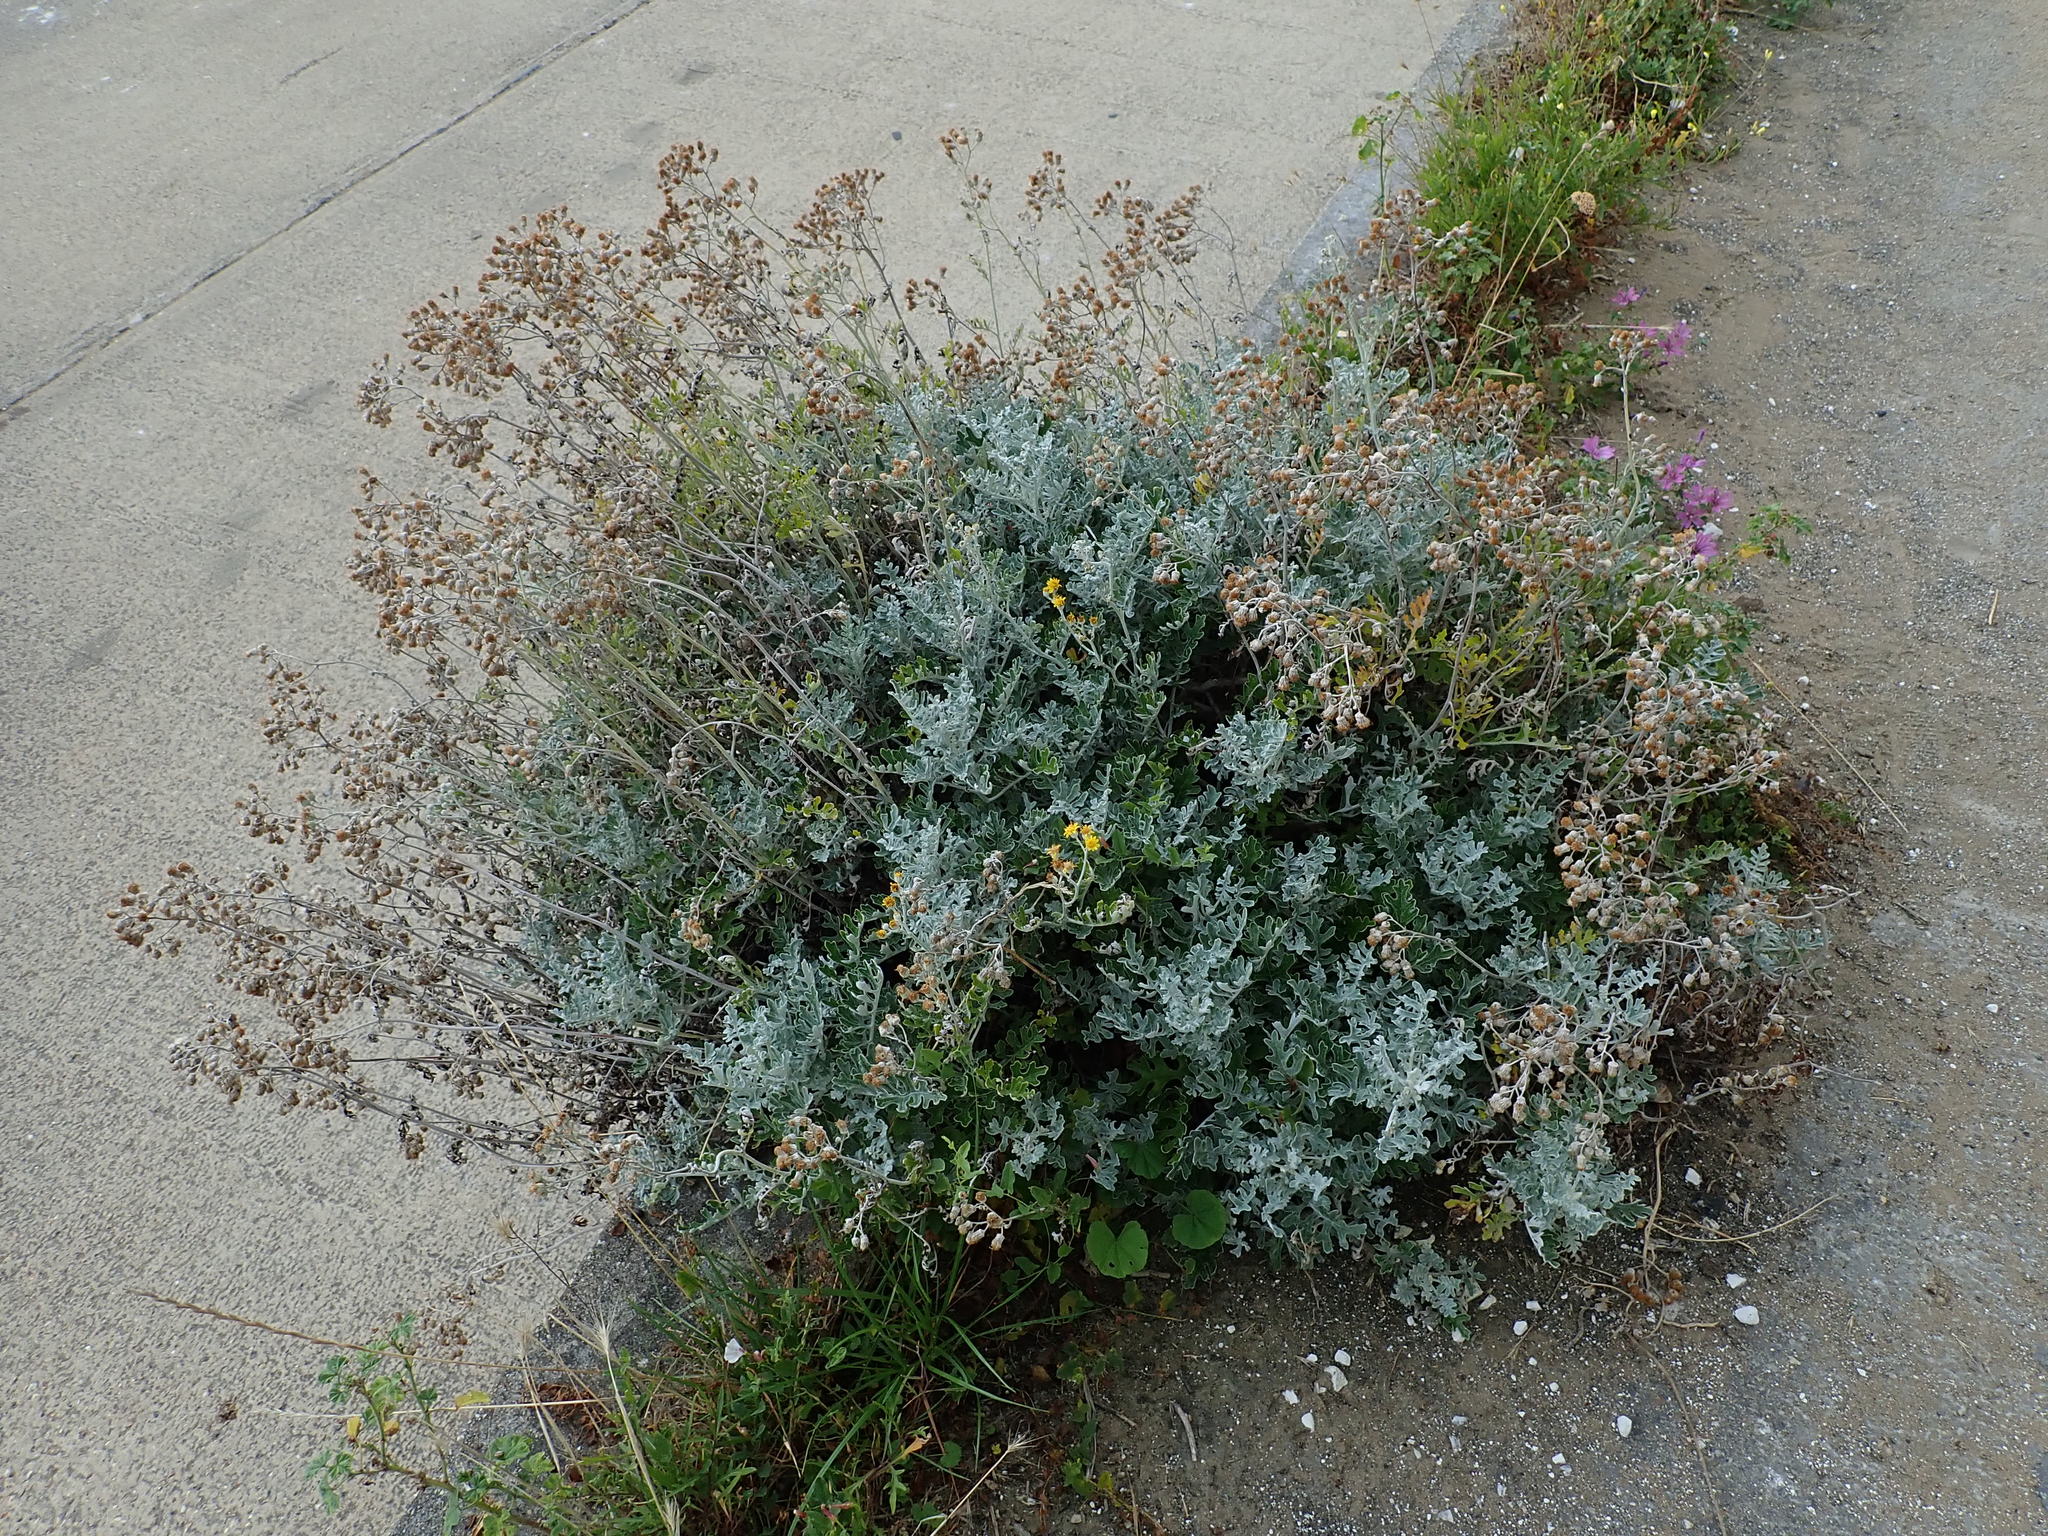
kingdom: Plantae
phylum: Tracheophyta
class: Magnoliopsida
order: Asterales
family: Asteraceae
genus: Jacobaea
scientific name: Jacobaea maritima
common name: Silver ragwort
